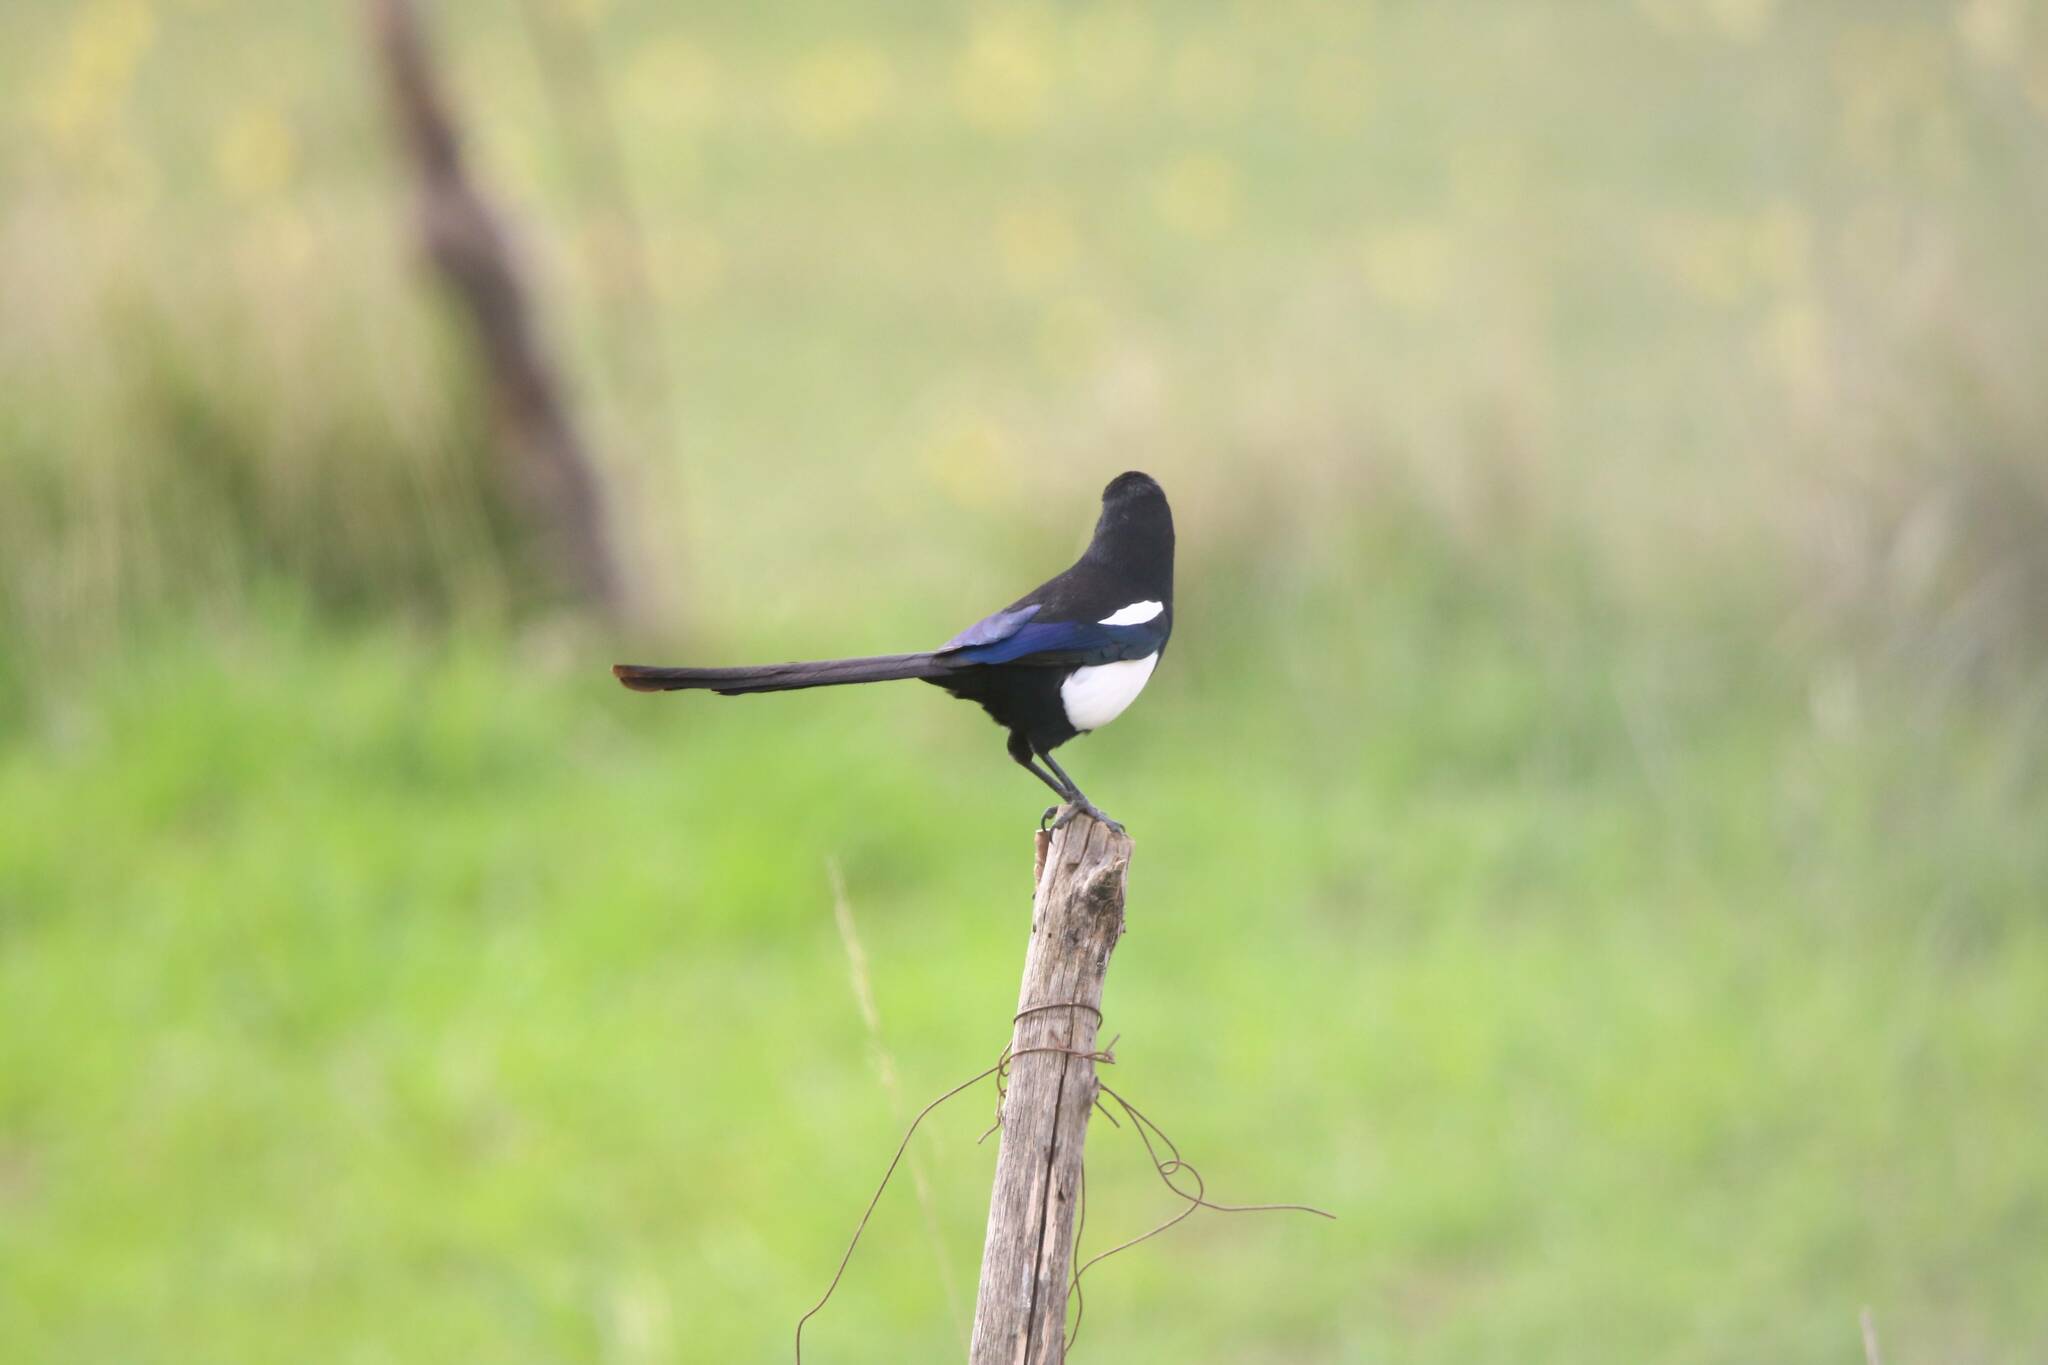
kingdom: Animalia
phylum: Chordata
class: Aves
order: Passeriformes
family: Corvidae
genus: Pica
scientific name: Pica mauritanica
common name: Maghreb magpie
